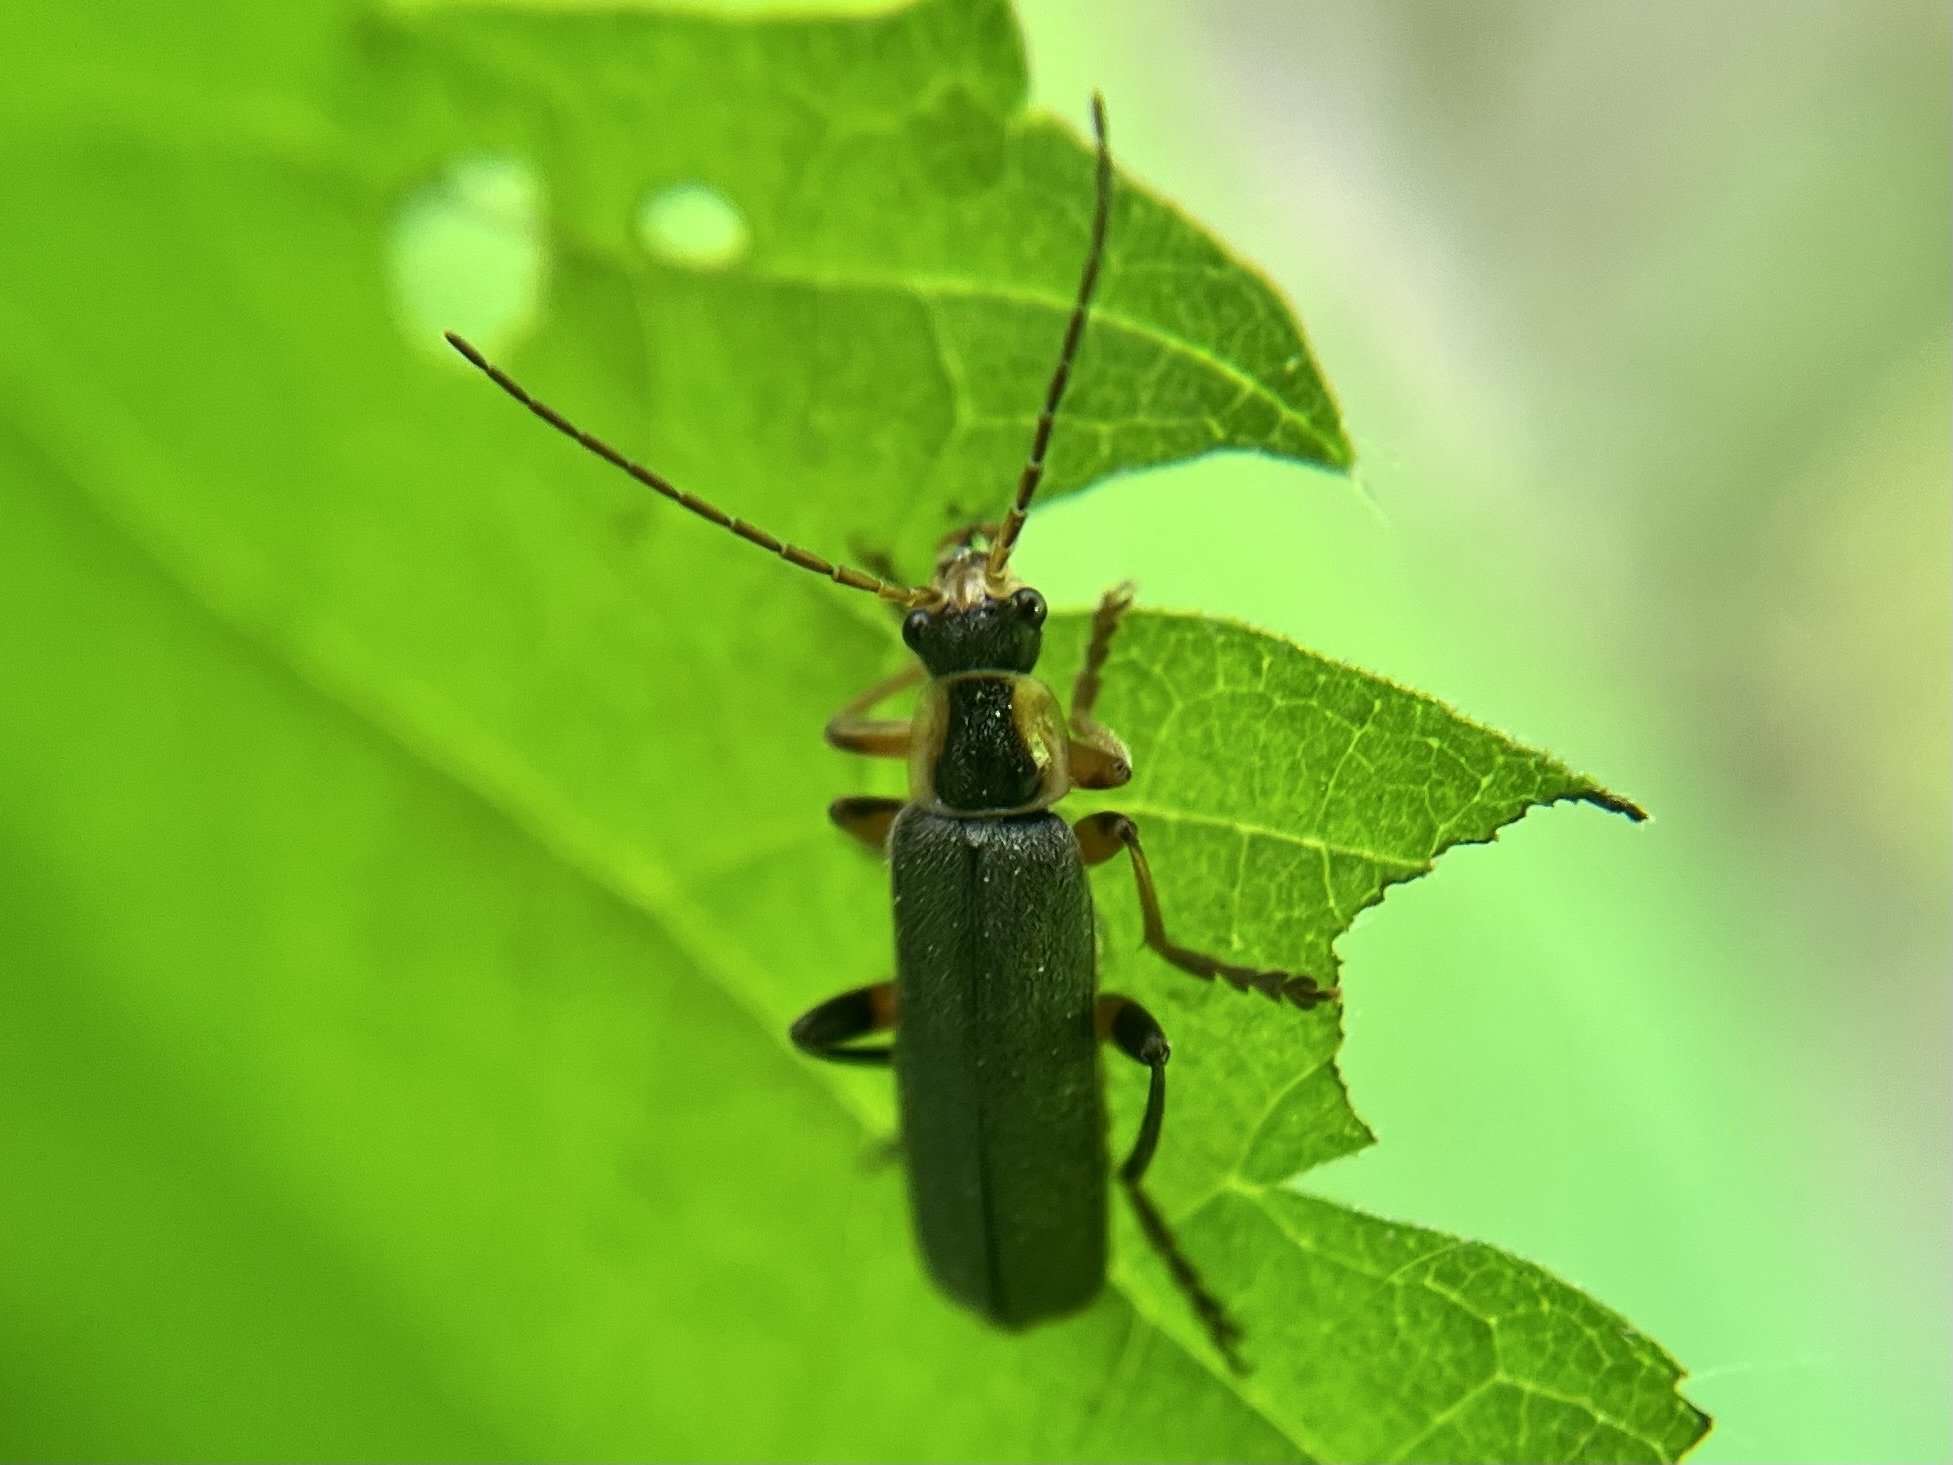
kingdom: Animalia
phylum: Arthropoda
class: Insecta
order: Coleoptera
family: Cantharidae
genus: Cantharis
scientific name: Cantharis nigricans
